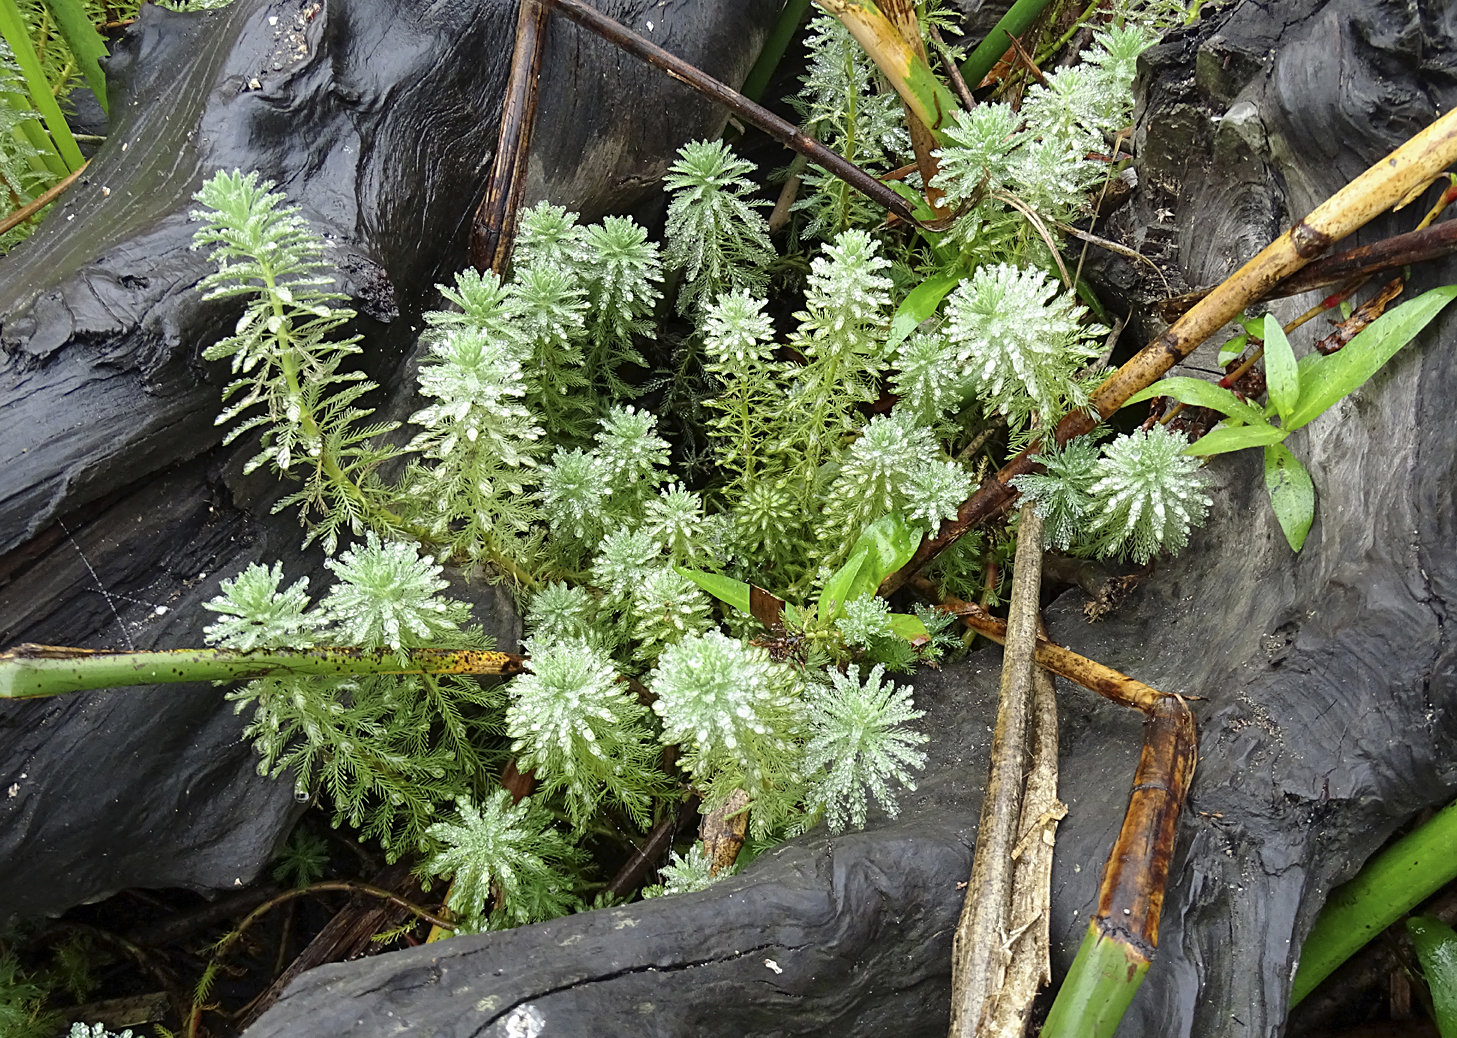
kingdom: Plantae
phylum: Tracheophyta
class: Magnoliopsida
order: Saxifragales
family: Haloragaceae
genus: Myriophyllum
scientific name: Myriophyllum aquaticum
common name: Parrot's feather
